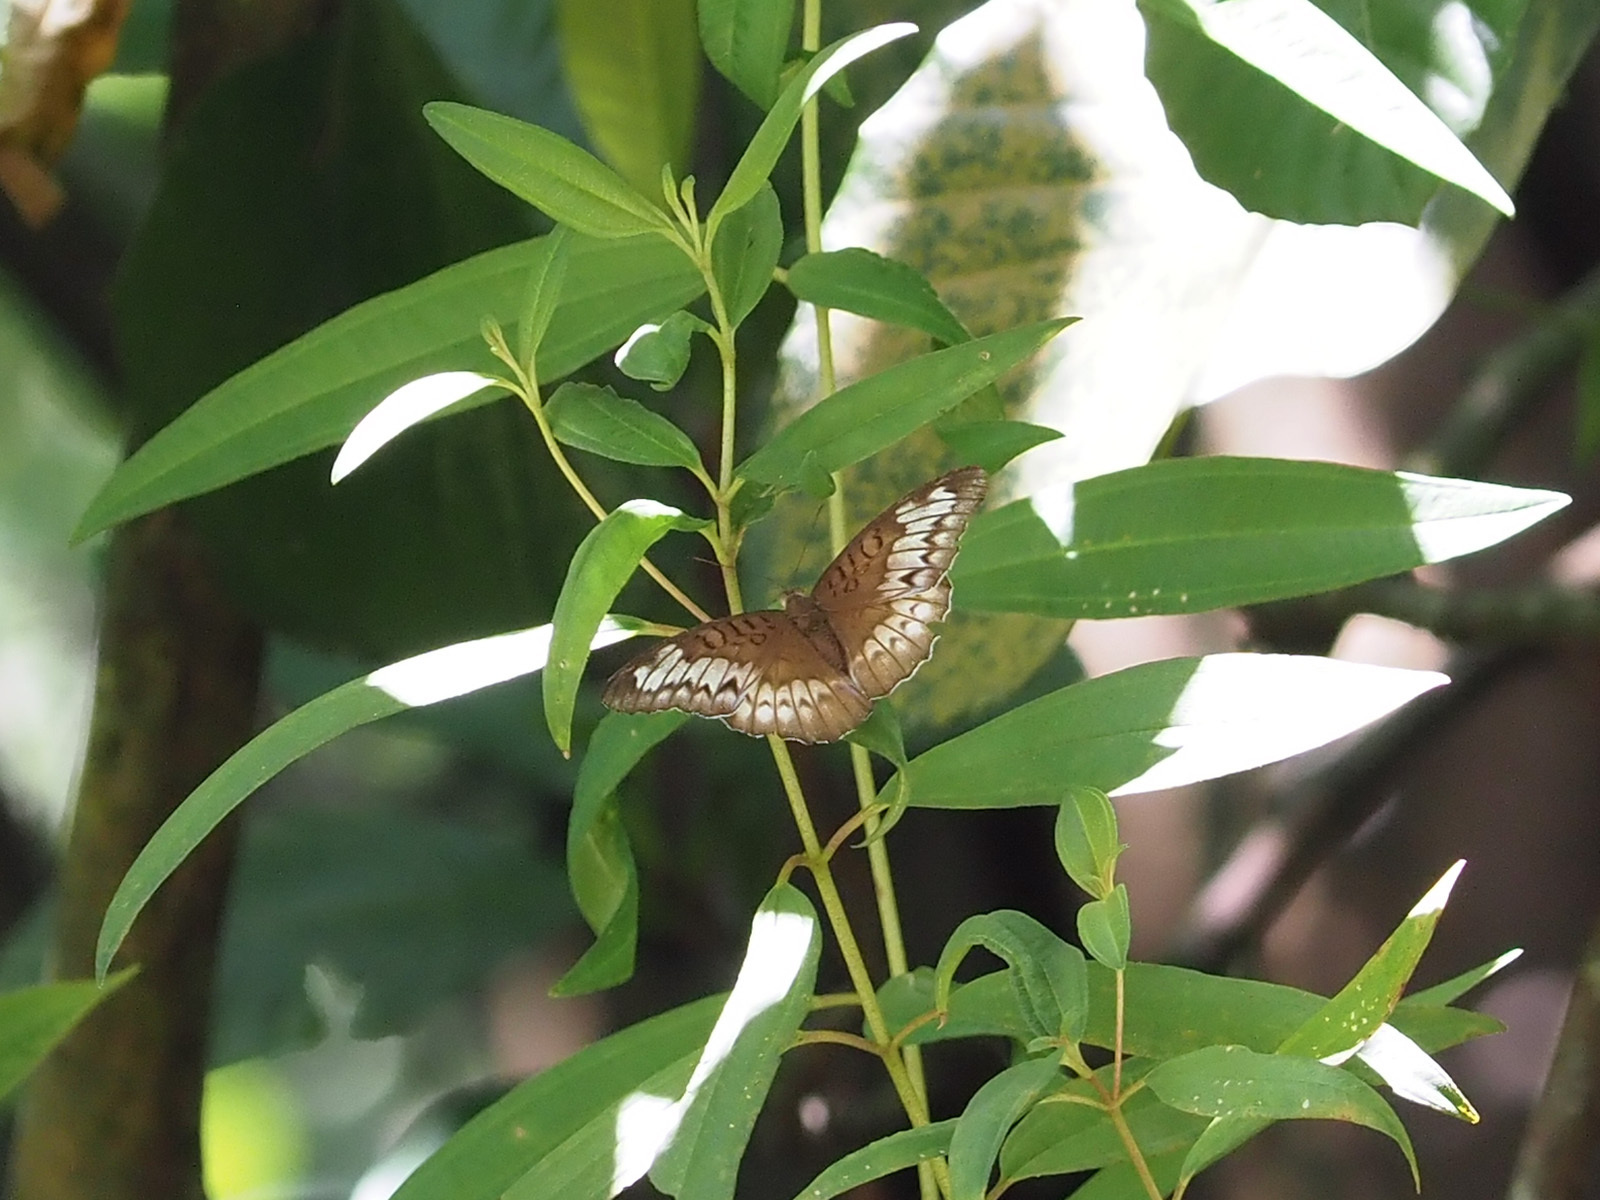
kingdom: Animalia
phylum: Arthropoda
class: Insecta
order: Lepidoptera
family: Nymphalidae
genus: Tanaecia
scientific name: Tanaecia iapis
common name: Horsfield's baron
